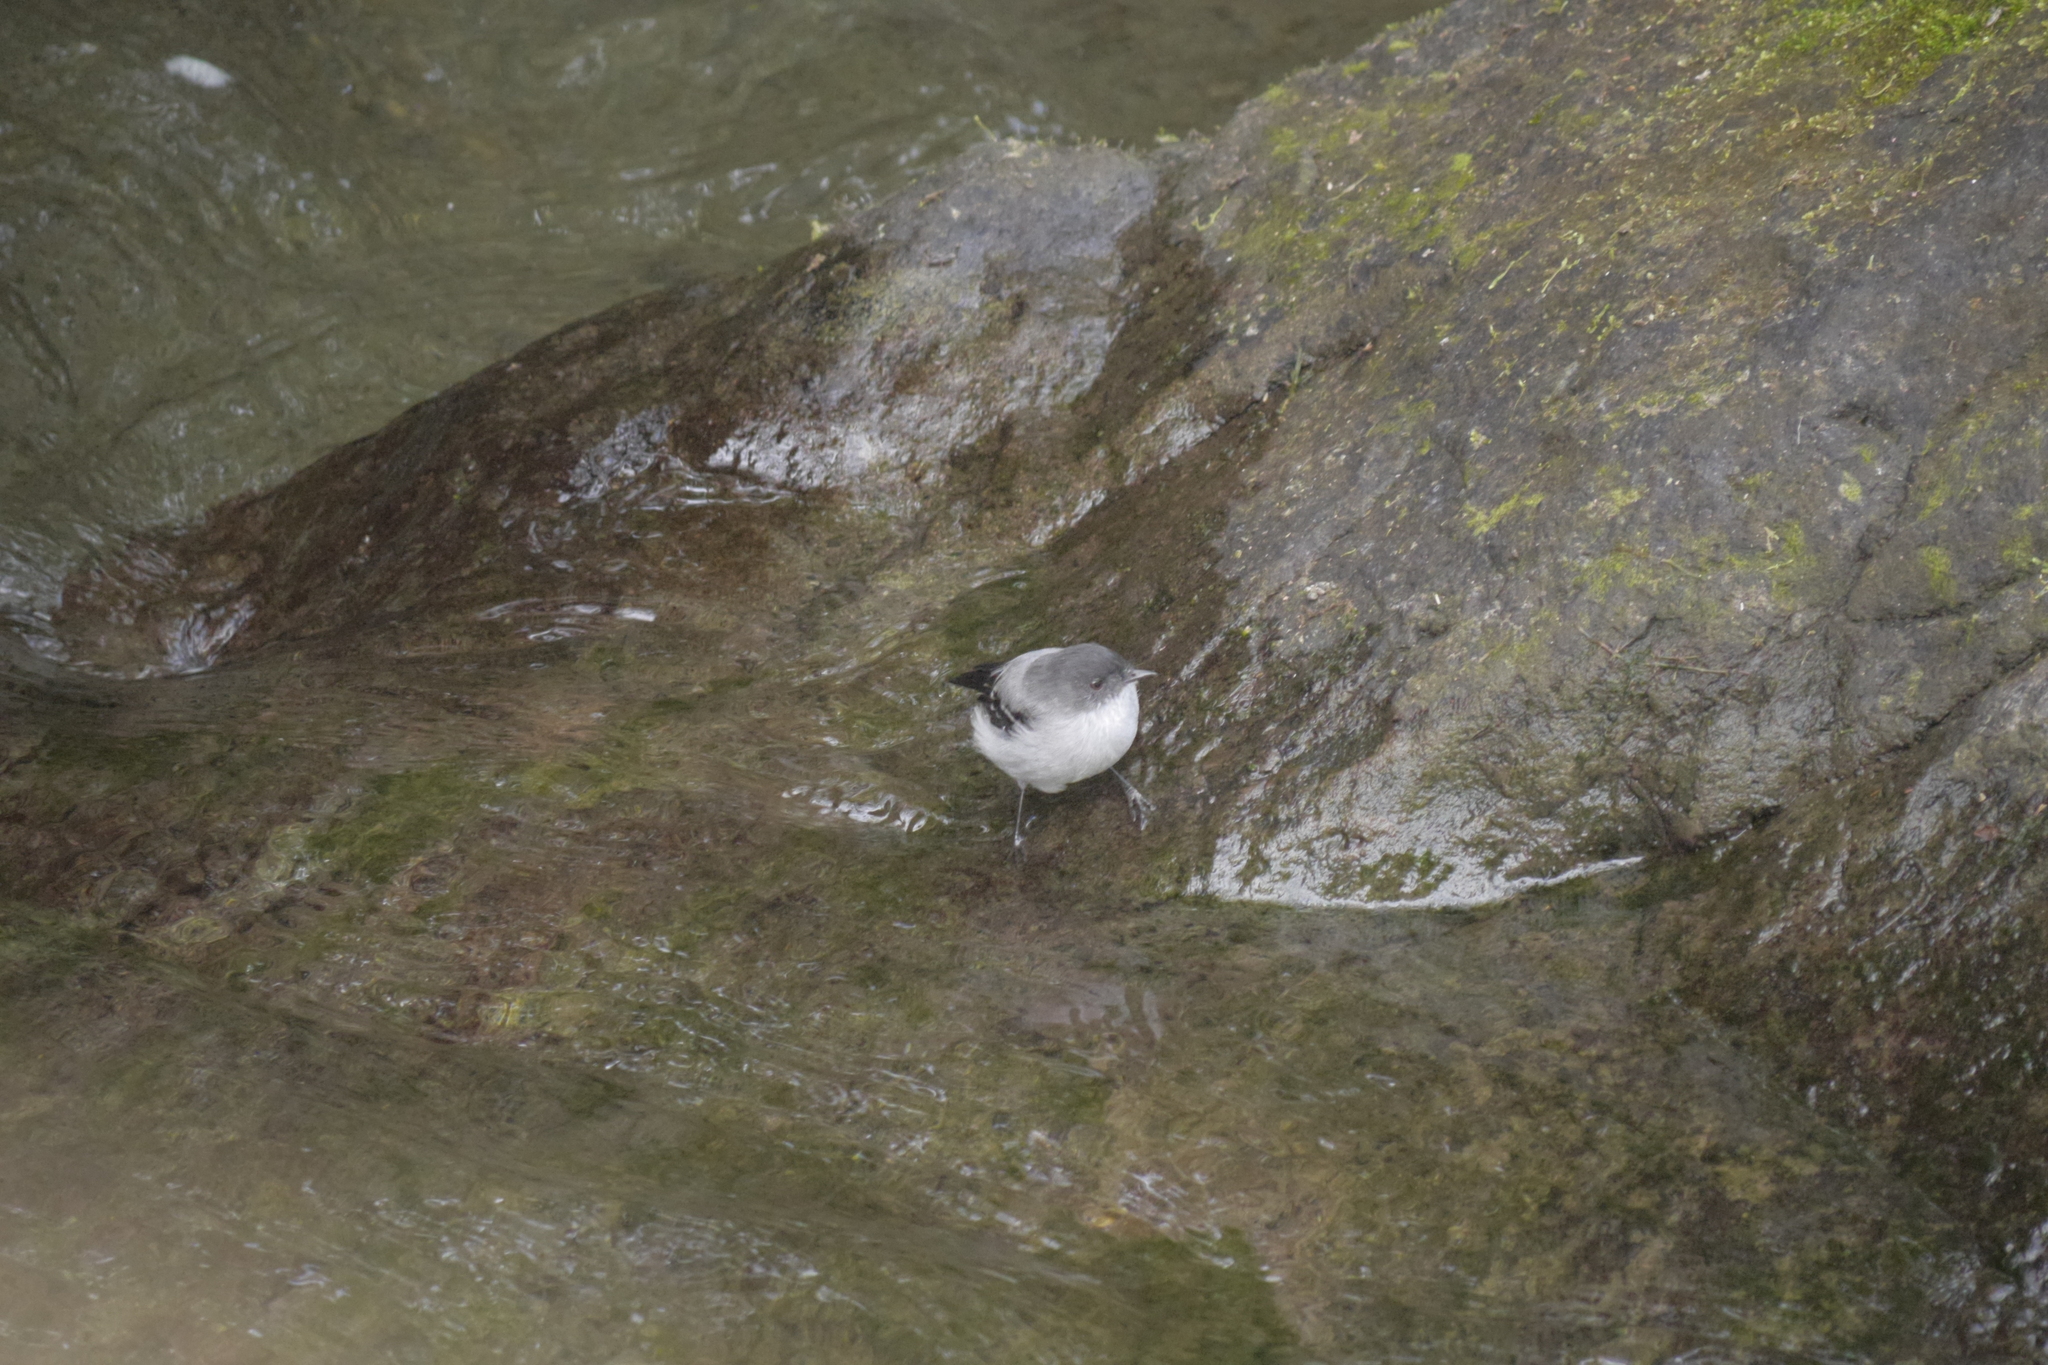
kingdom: Animalia
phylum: Chordata
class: Aves
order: Passeriformes
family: Tyrannidae
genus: Serpophaga
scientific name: Serpophaga cinerea
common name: Torrent tyrannulet
